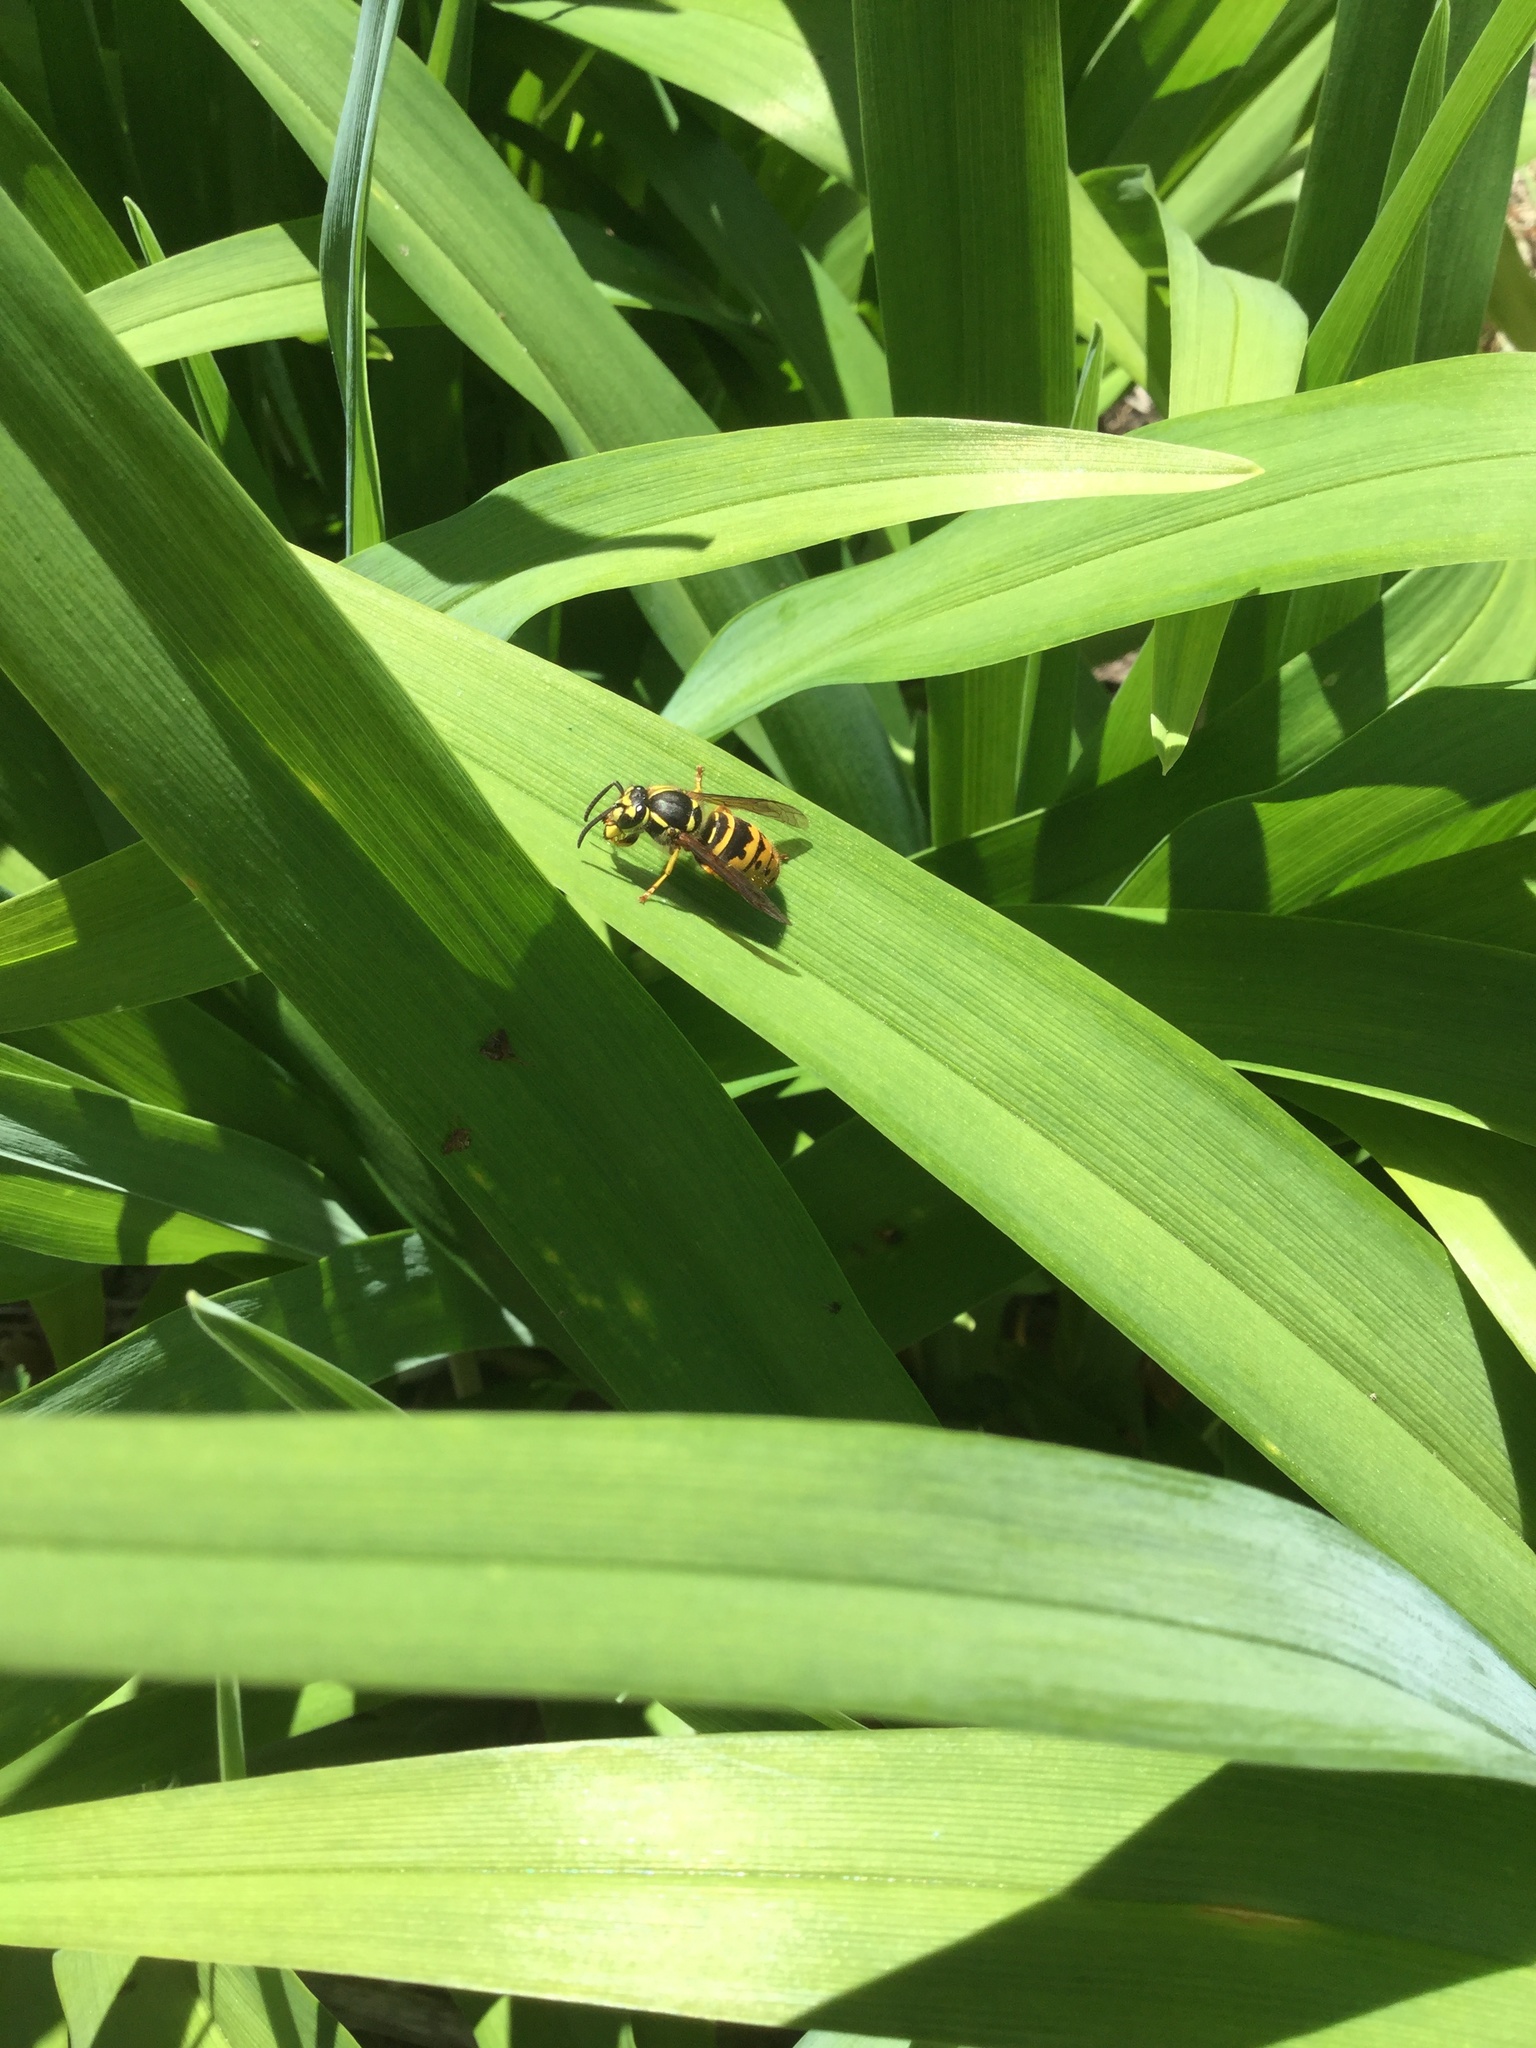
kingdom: Animalia
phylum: Arthropoda
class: Insecta
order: Hymenoptera
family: Vespidae
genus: Vespula
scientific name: Vespula maculifrons
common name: Eastern yellowjacket
